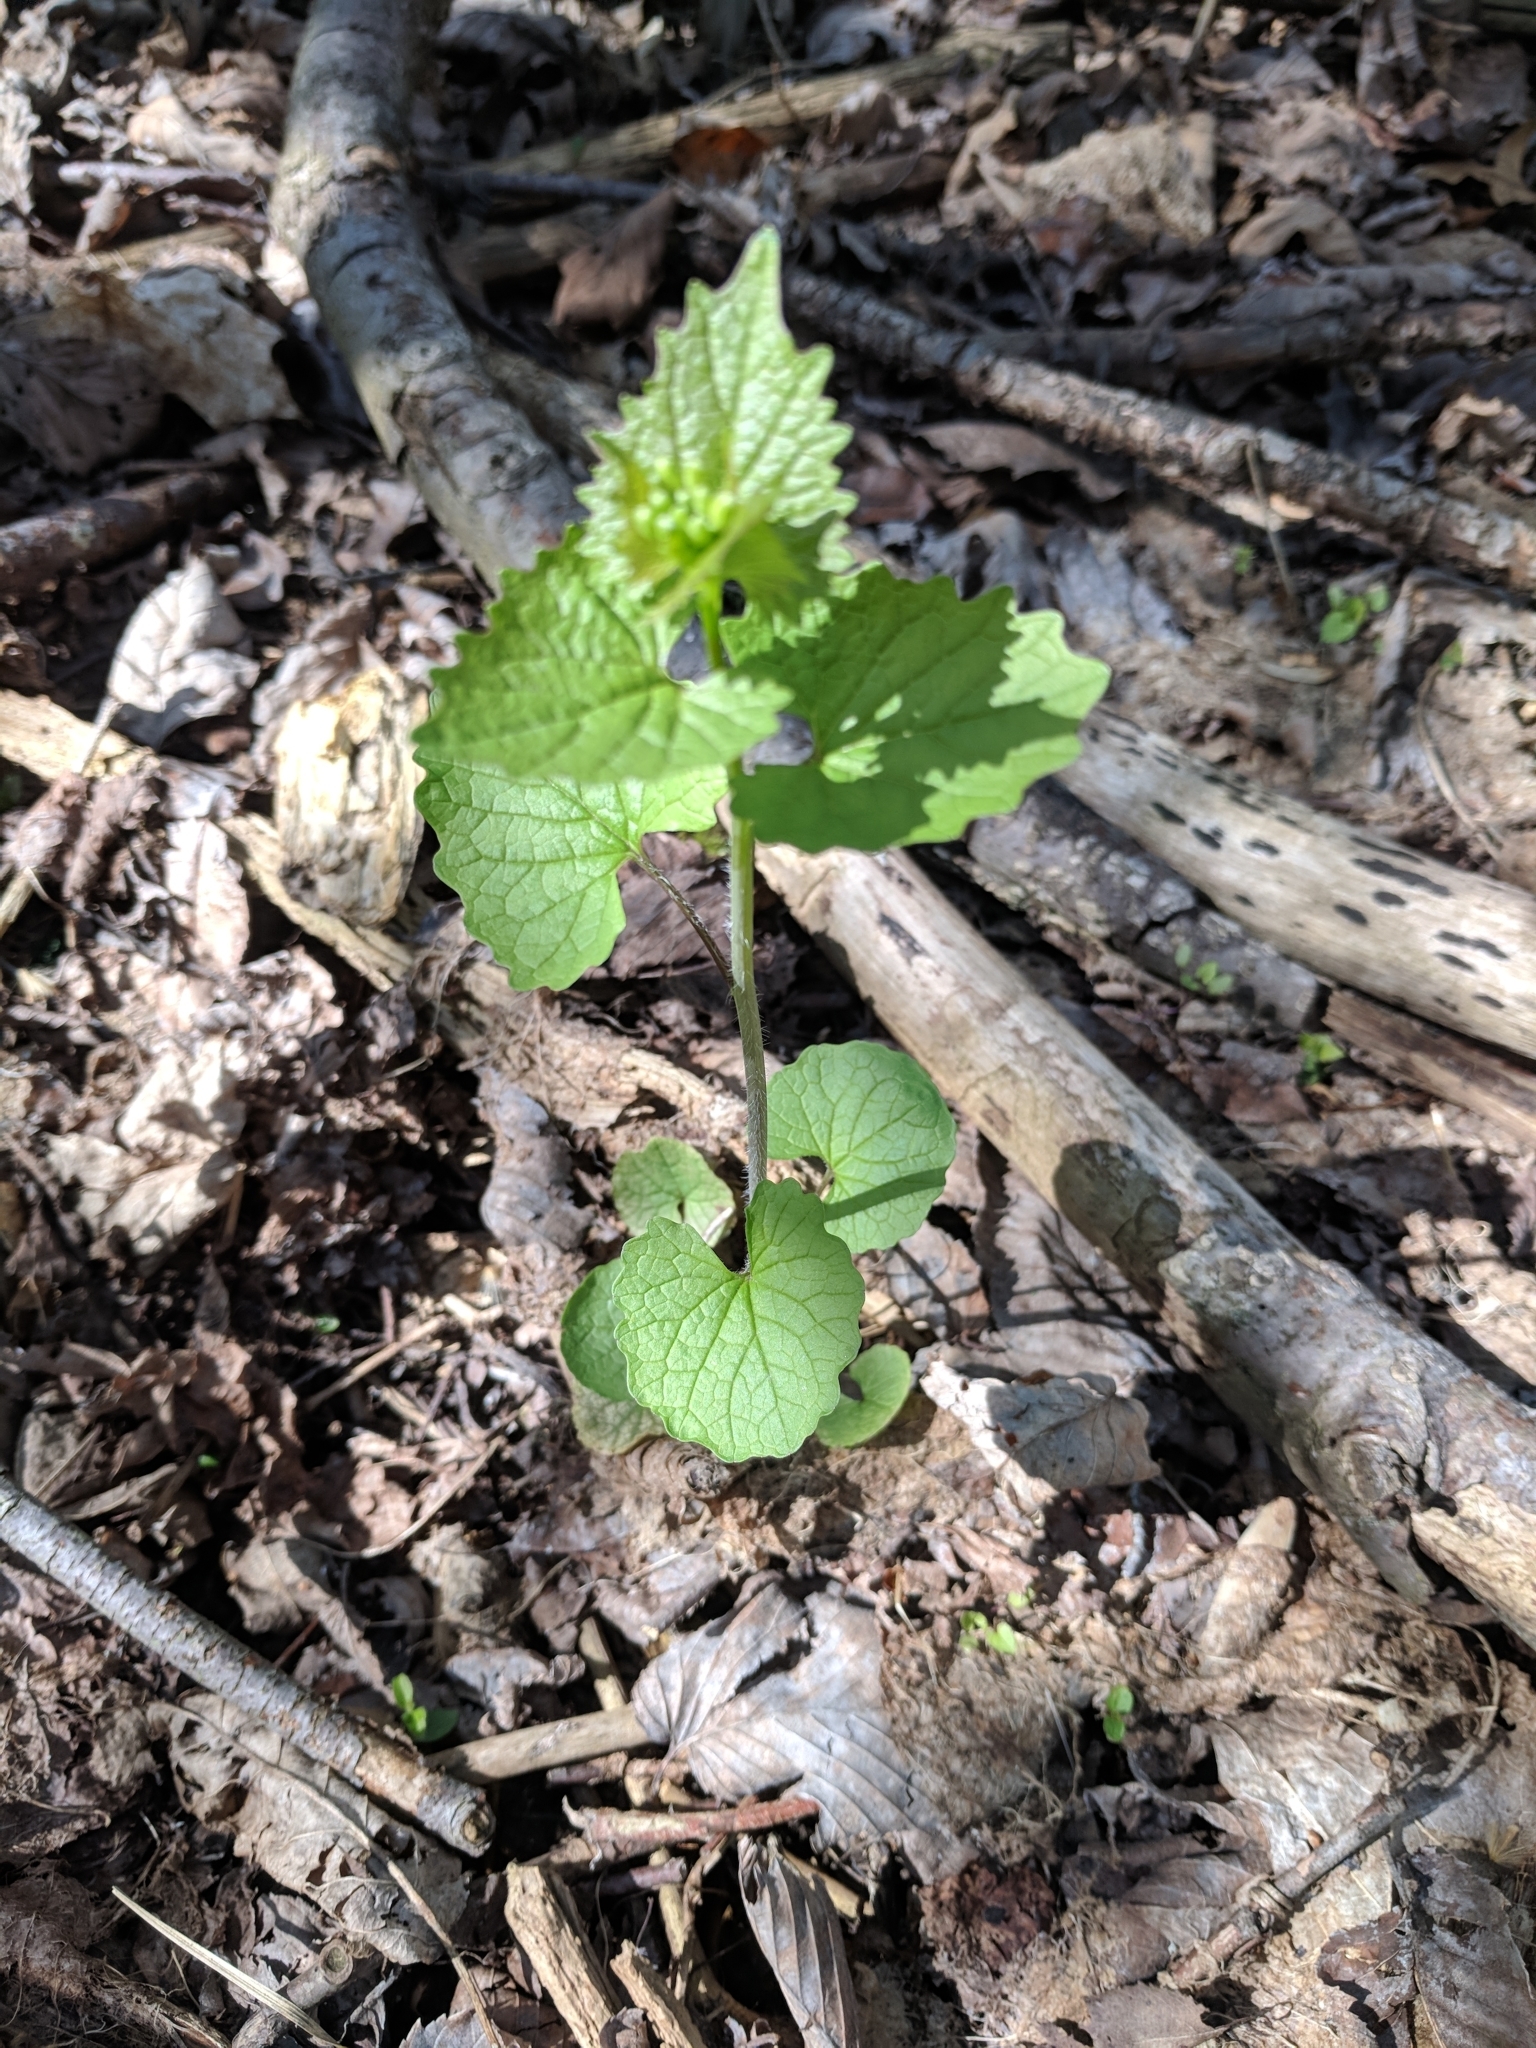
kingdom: Plantae
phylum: Tracheophyta
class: Magnoliopsida
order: Brassicales
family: Brassicaceae
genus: Alliaria
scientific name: Alliaria petiolata
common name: Garlic mustard
